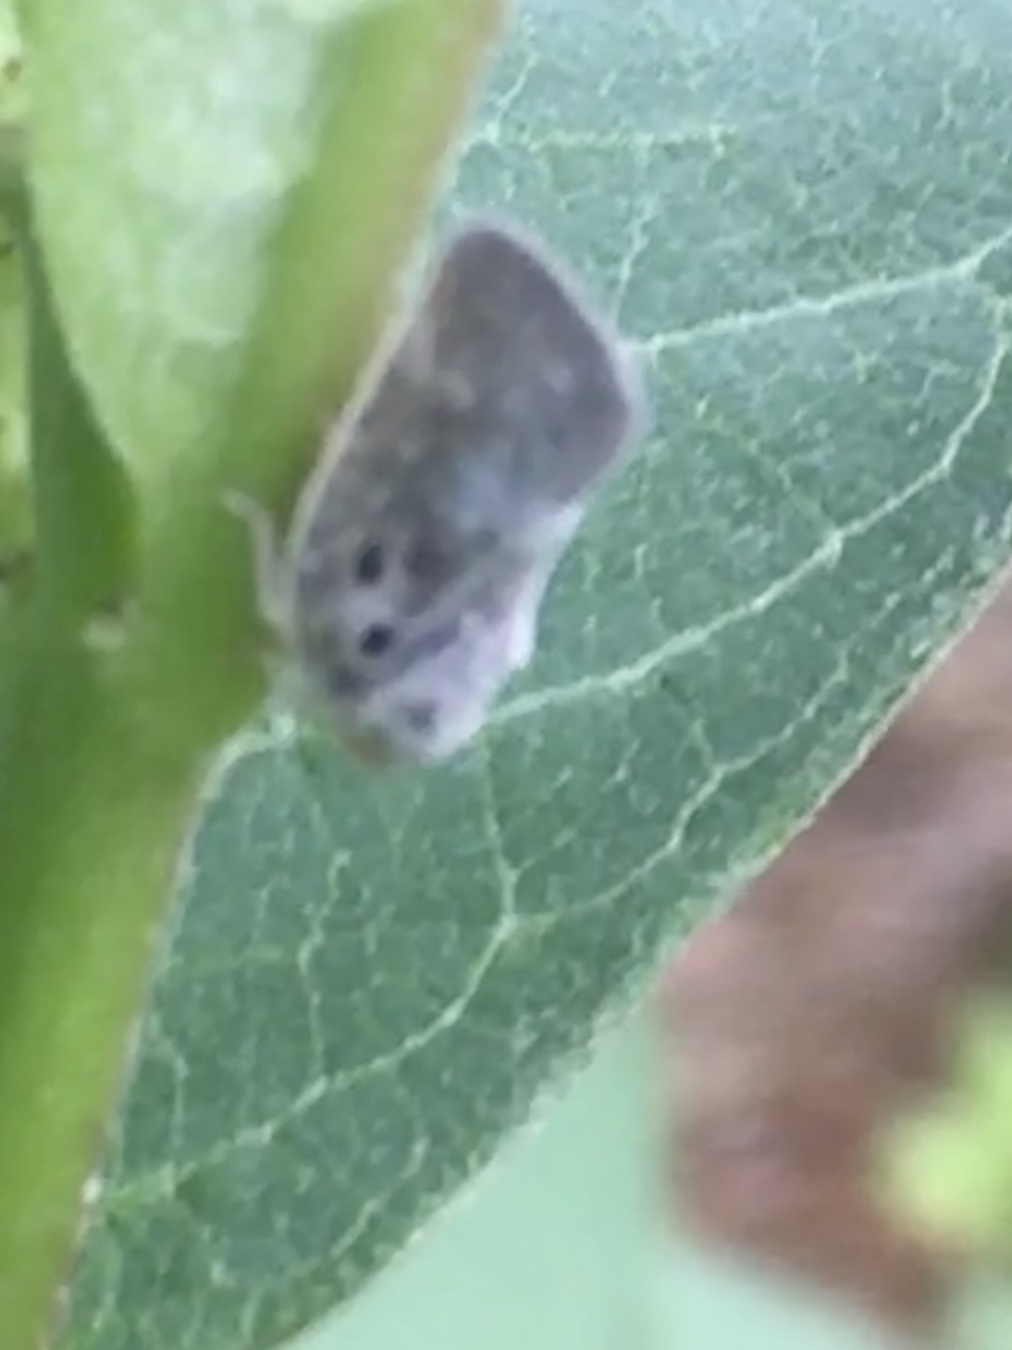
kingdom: Animalia
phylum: Arthropoda
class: Insecta
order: Hemiptera
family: Flatidae
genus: Metcalfa
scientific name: Metcalfa pruinosa
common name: Citrus flatid planthopper
